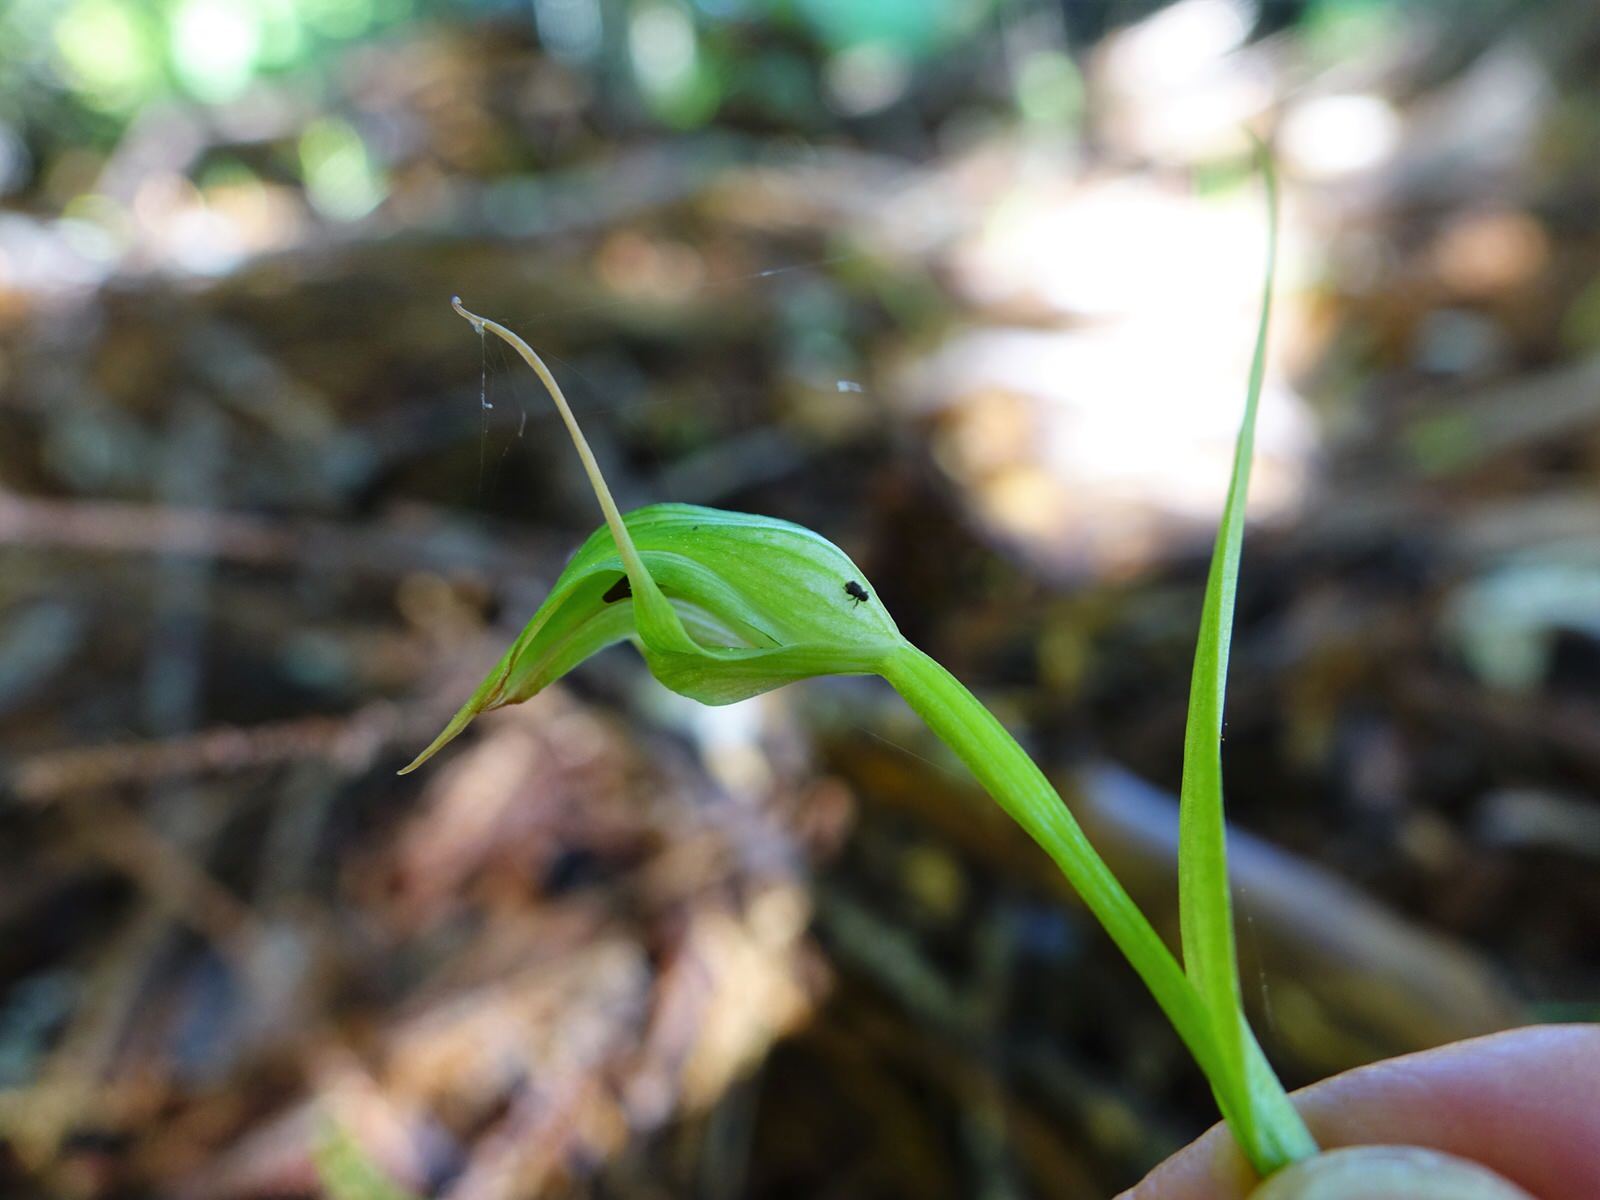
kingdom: Plantae
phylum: Tracheophyta
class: Liliopsida
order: Asparagales
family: Orchidaceae
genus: Pterostylis
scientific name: Pterostylis agathicola
